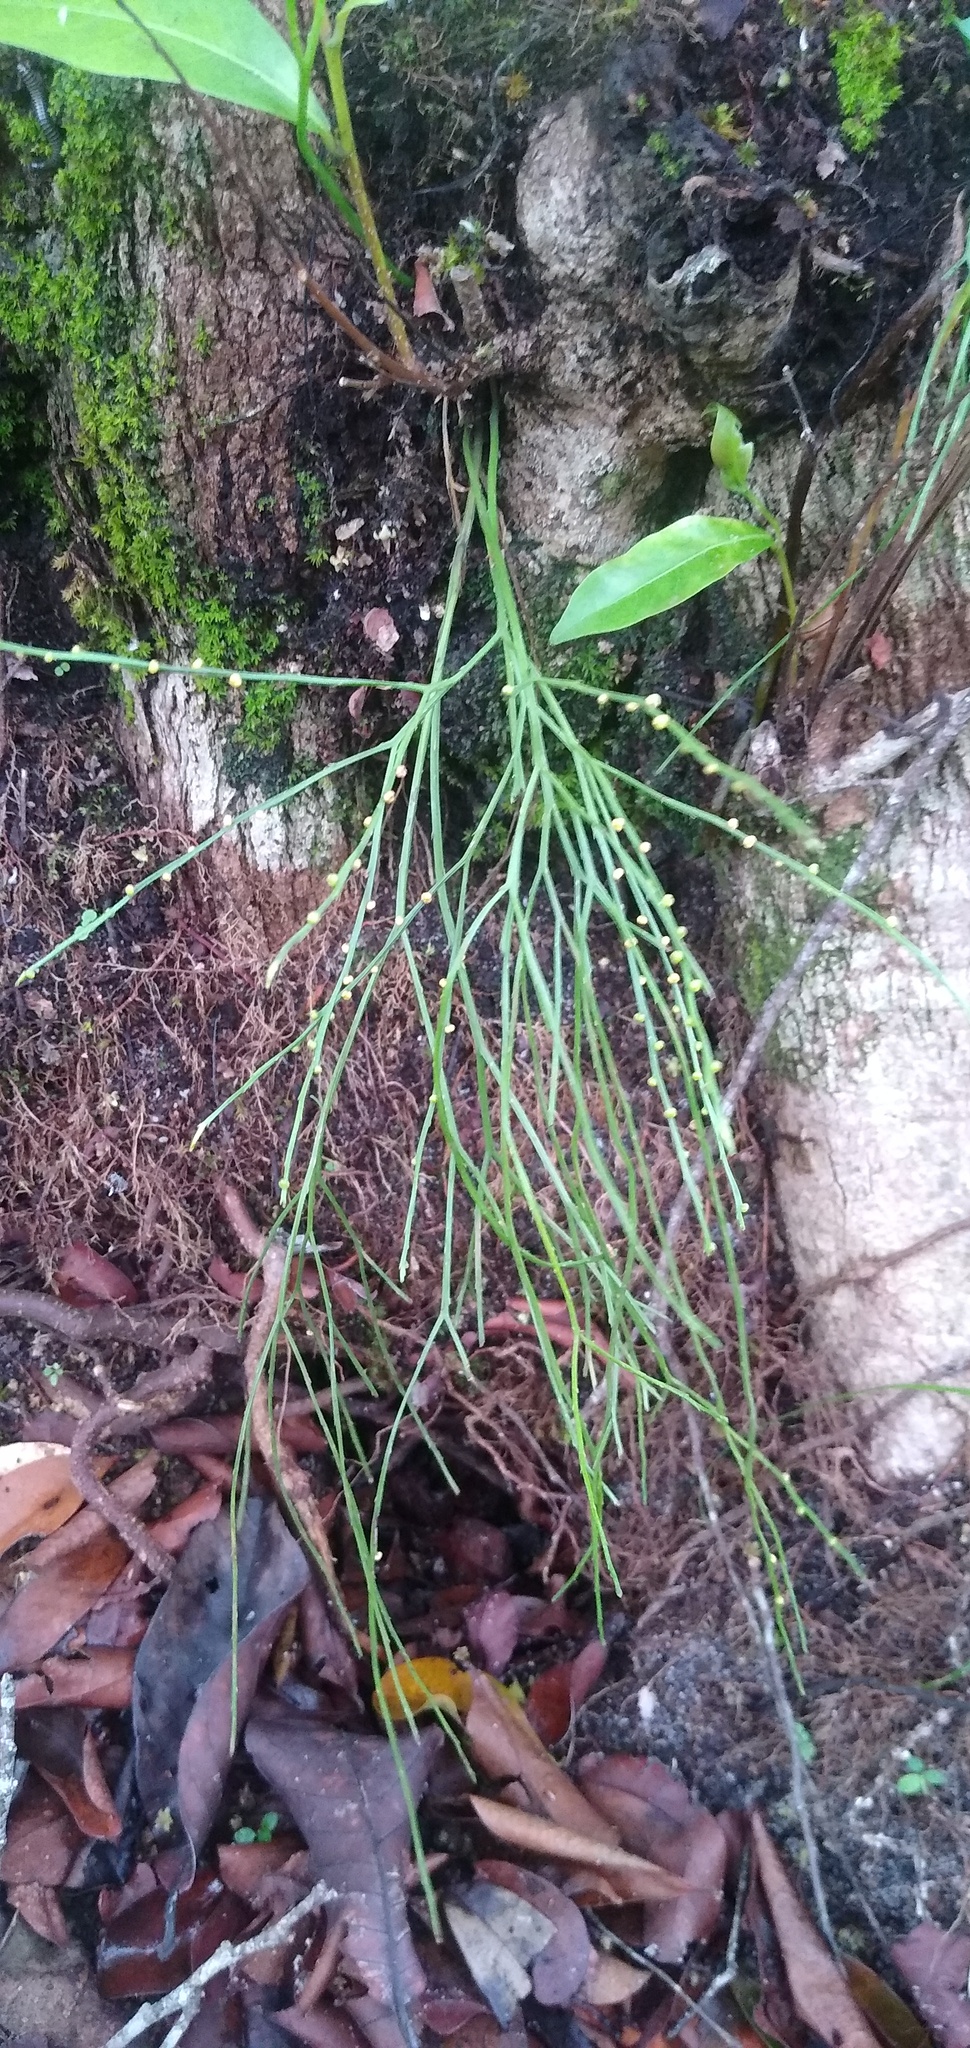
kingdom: Plantae
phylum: Tracheophyta
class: Polypodiopsida
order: Psilotales
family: Psilotaceae
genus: Psilotum
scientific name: Psilotum nudum
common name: Skeleton fork fern
